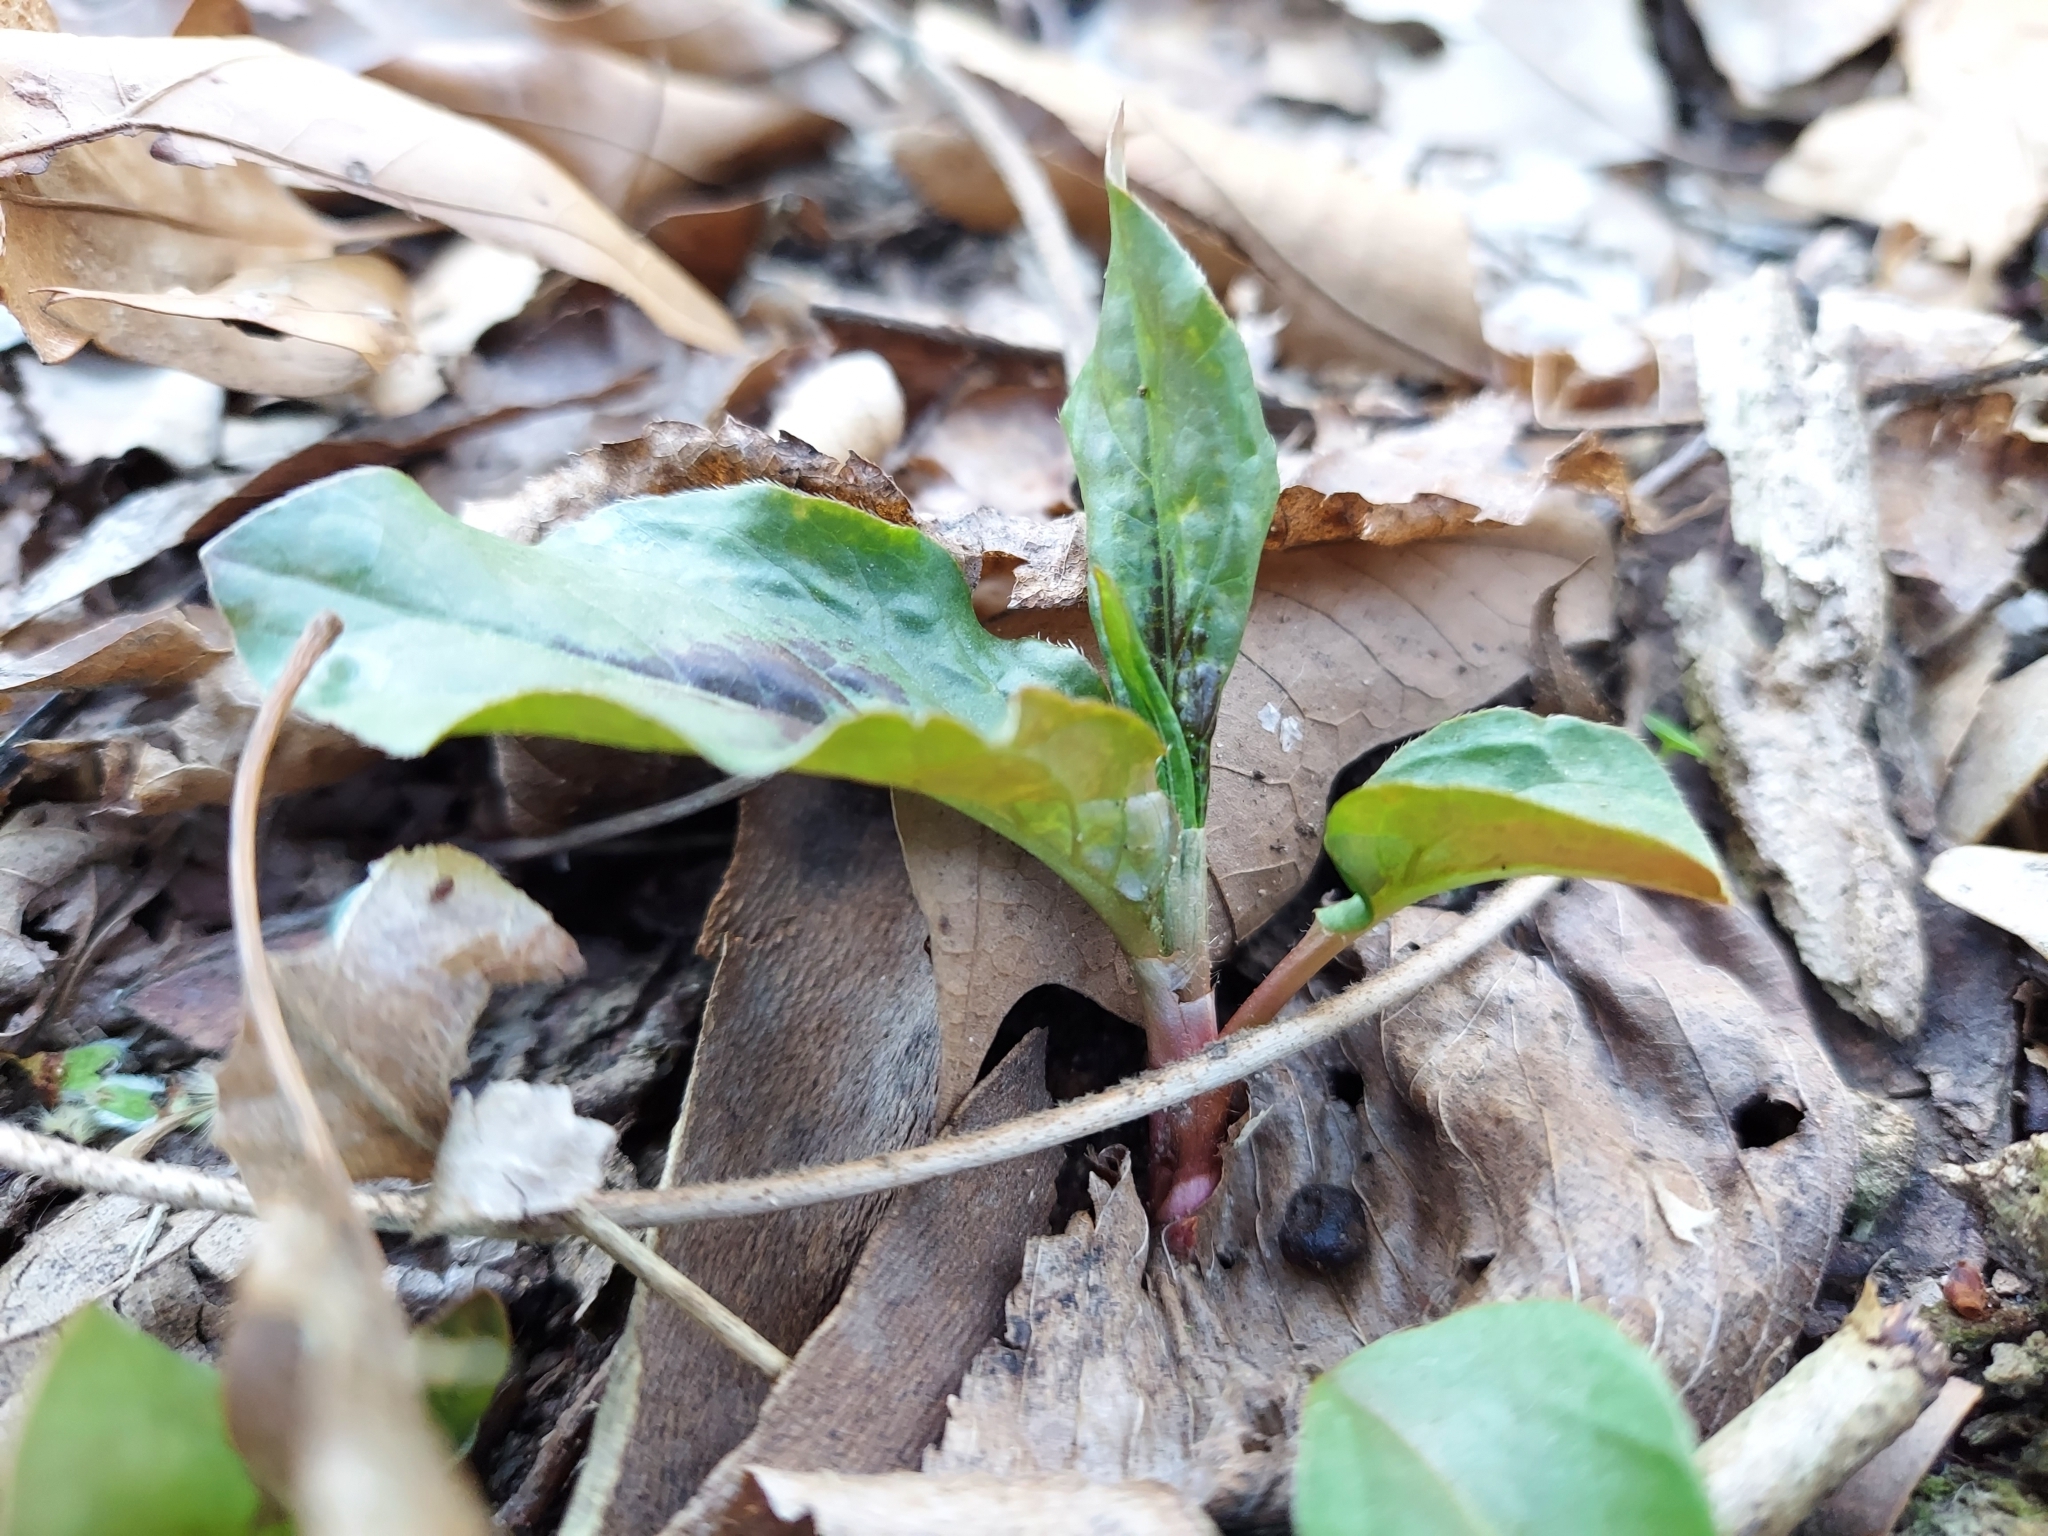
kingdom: Plantae
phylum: Tracheophyta
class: Magnoliopsida
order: Caryophyllales
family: Polygonaceae
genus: Persicaria
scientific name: Persicaria virginiana
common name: Jumpseed
